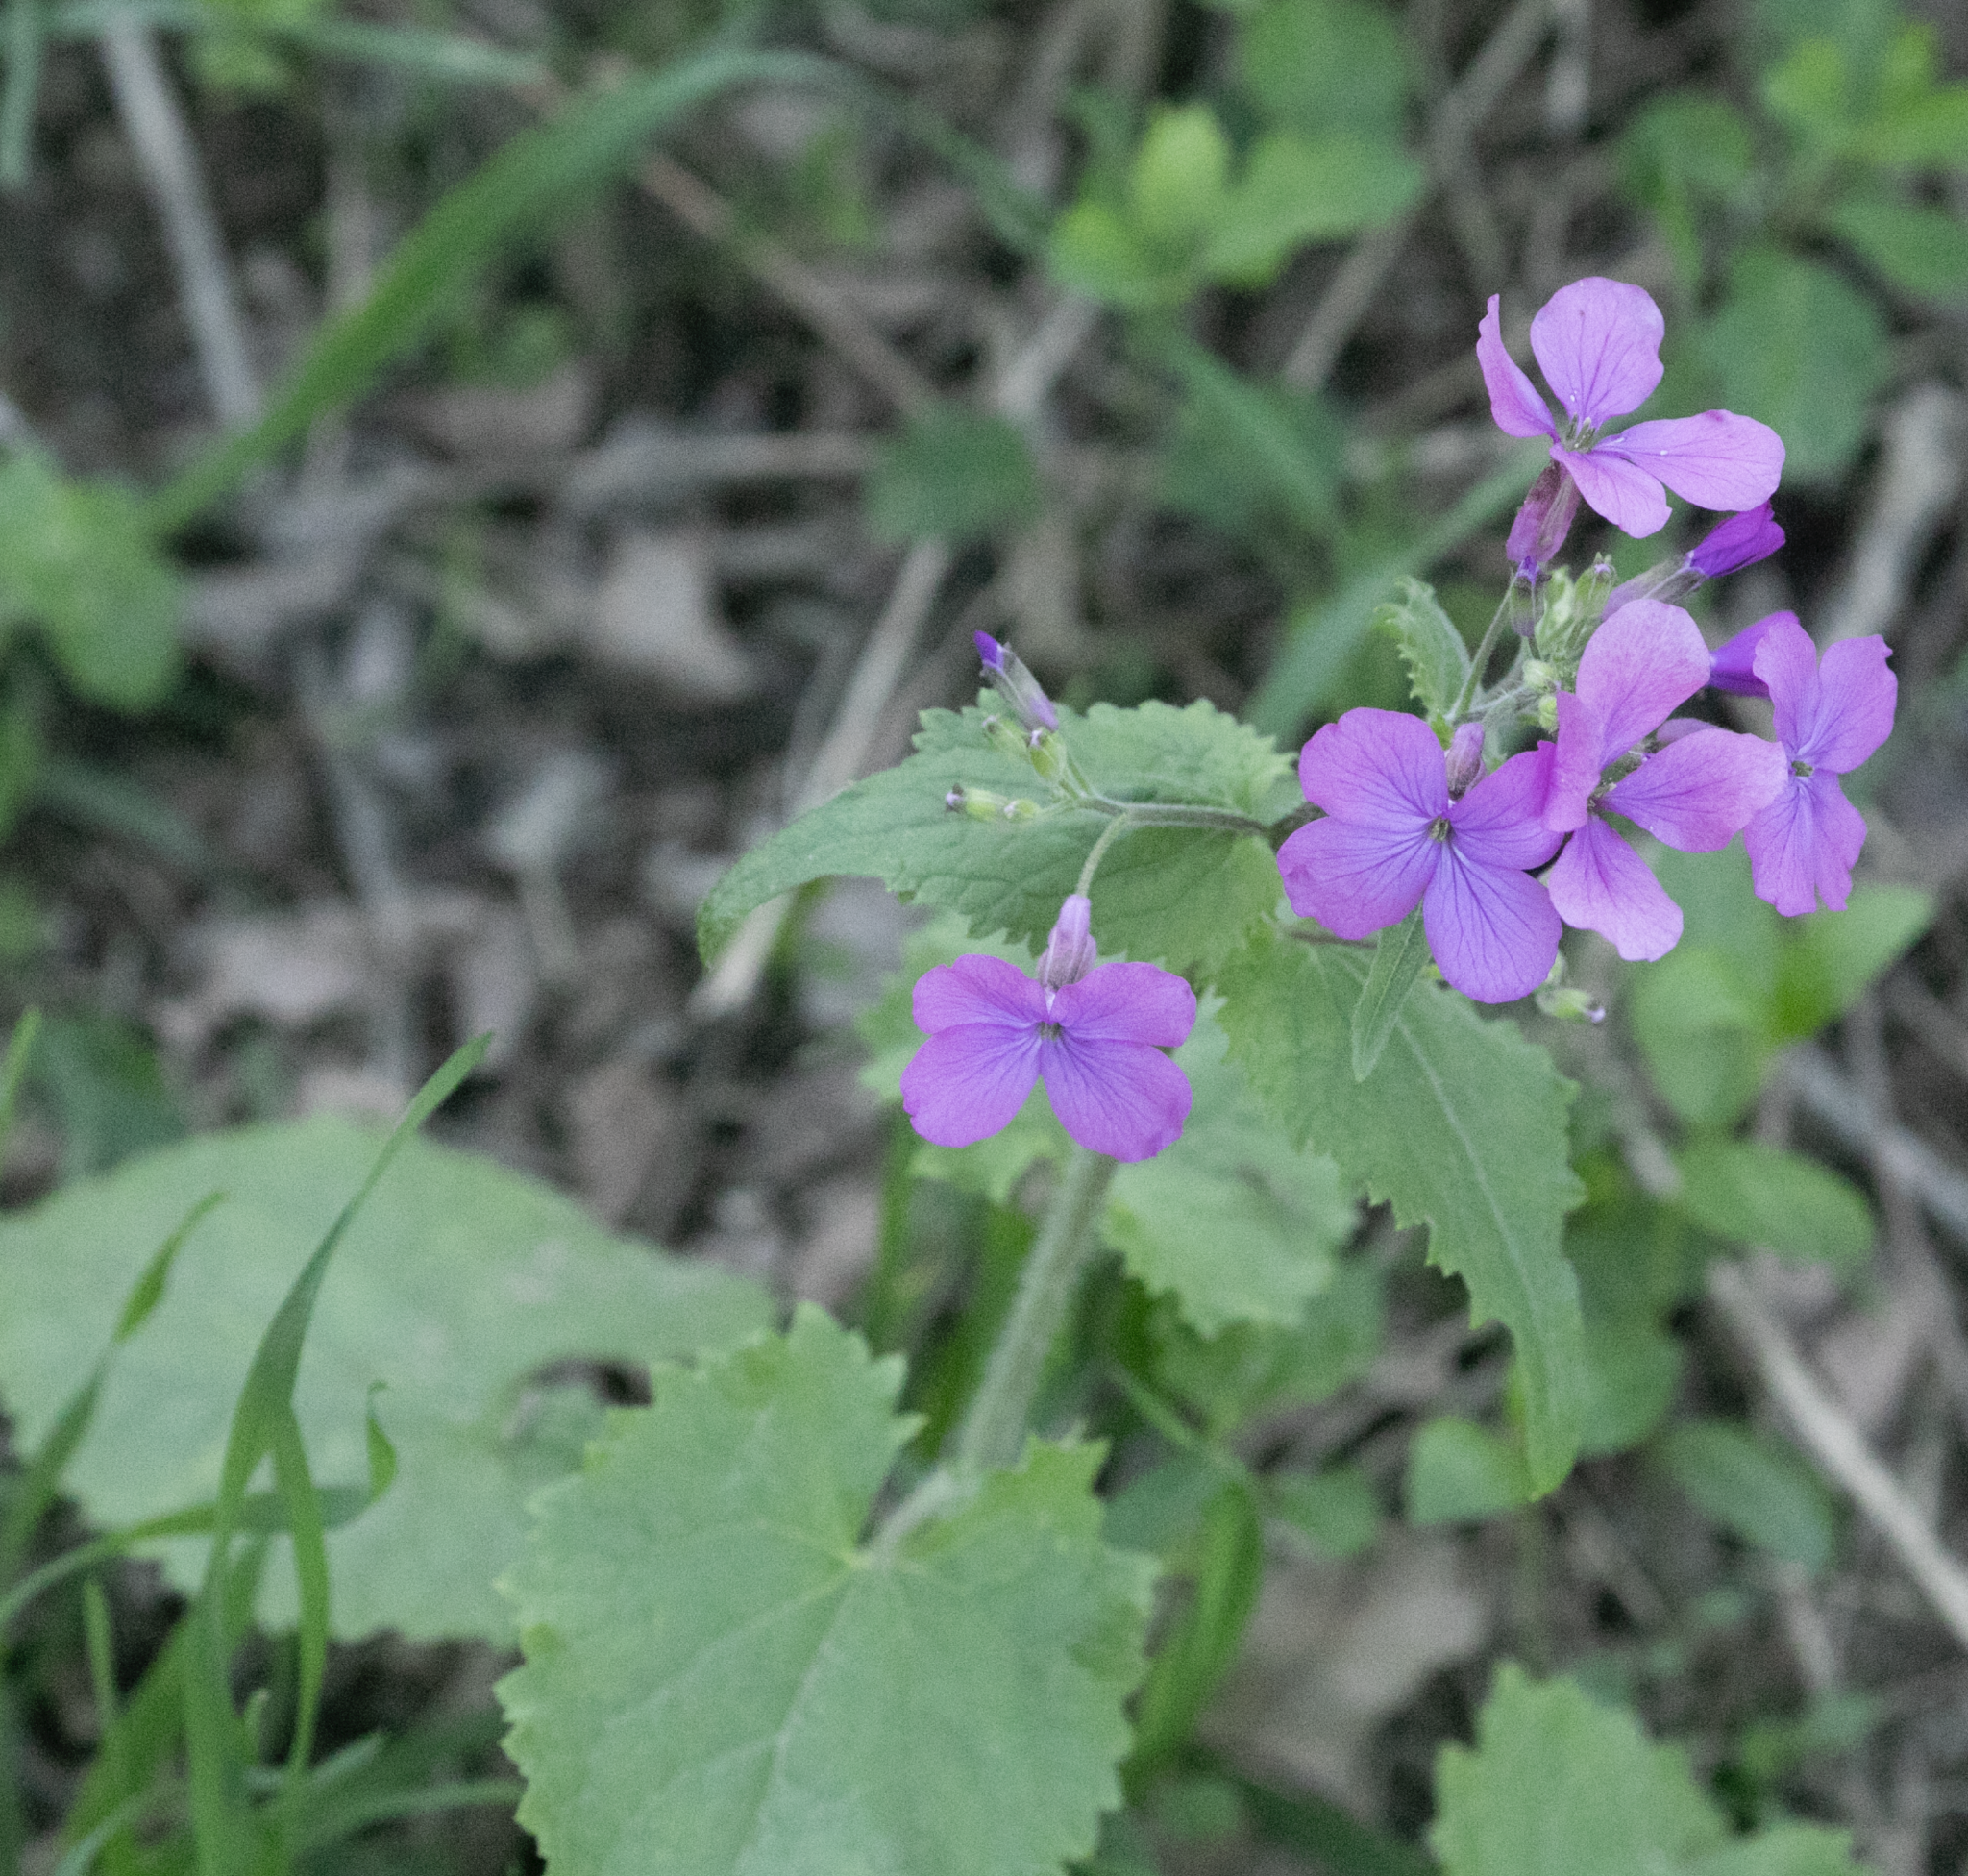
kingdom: Plantae
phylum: Tracheophyta
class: Magnoliopsida
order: Brassicales
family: Brassicaceae
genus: Lunaria
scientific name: Lunaria annua
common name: Honesty
